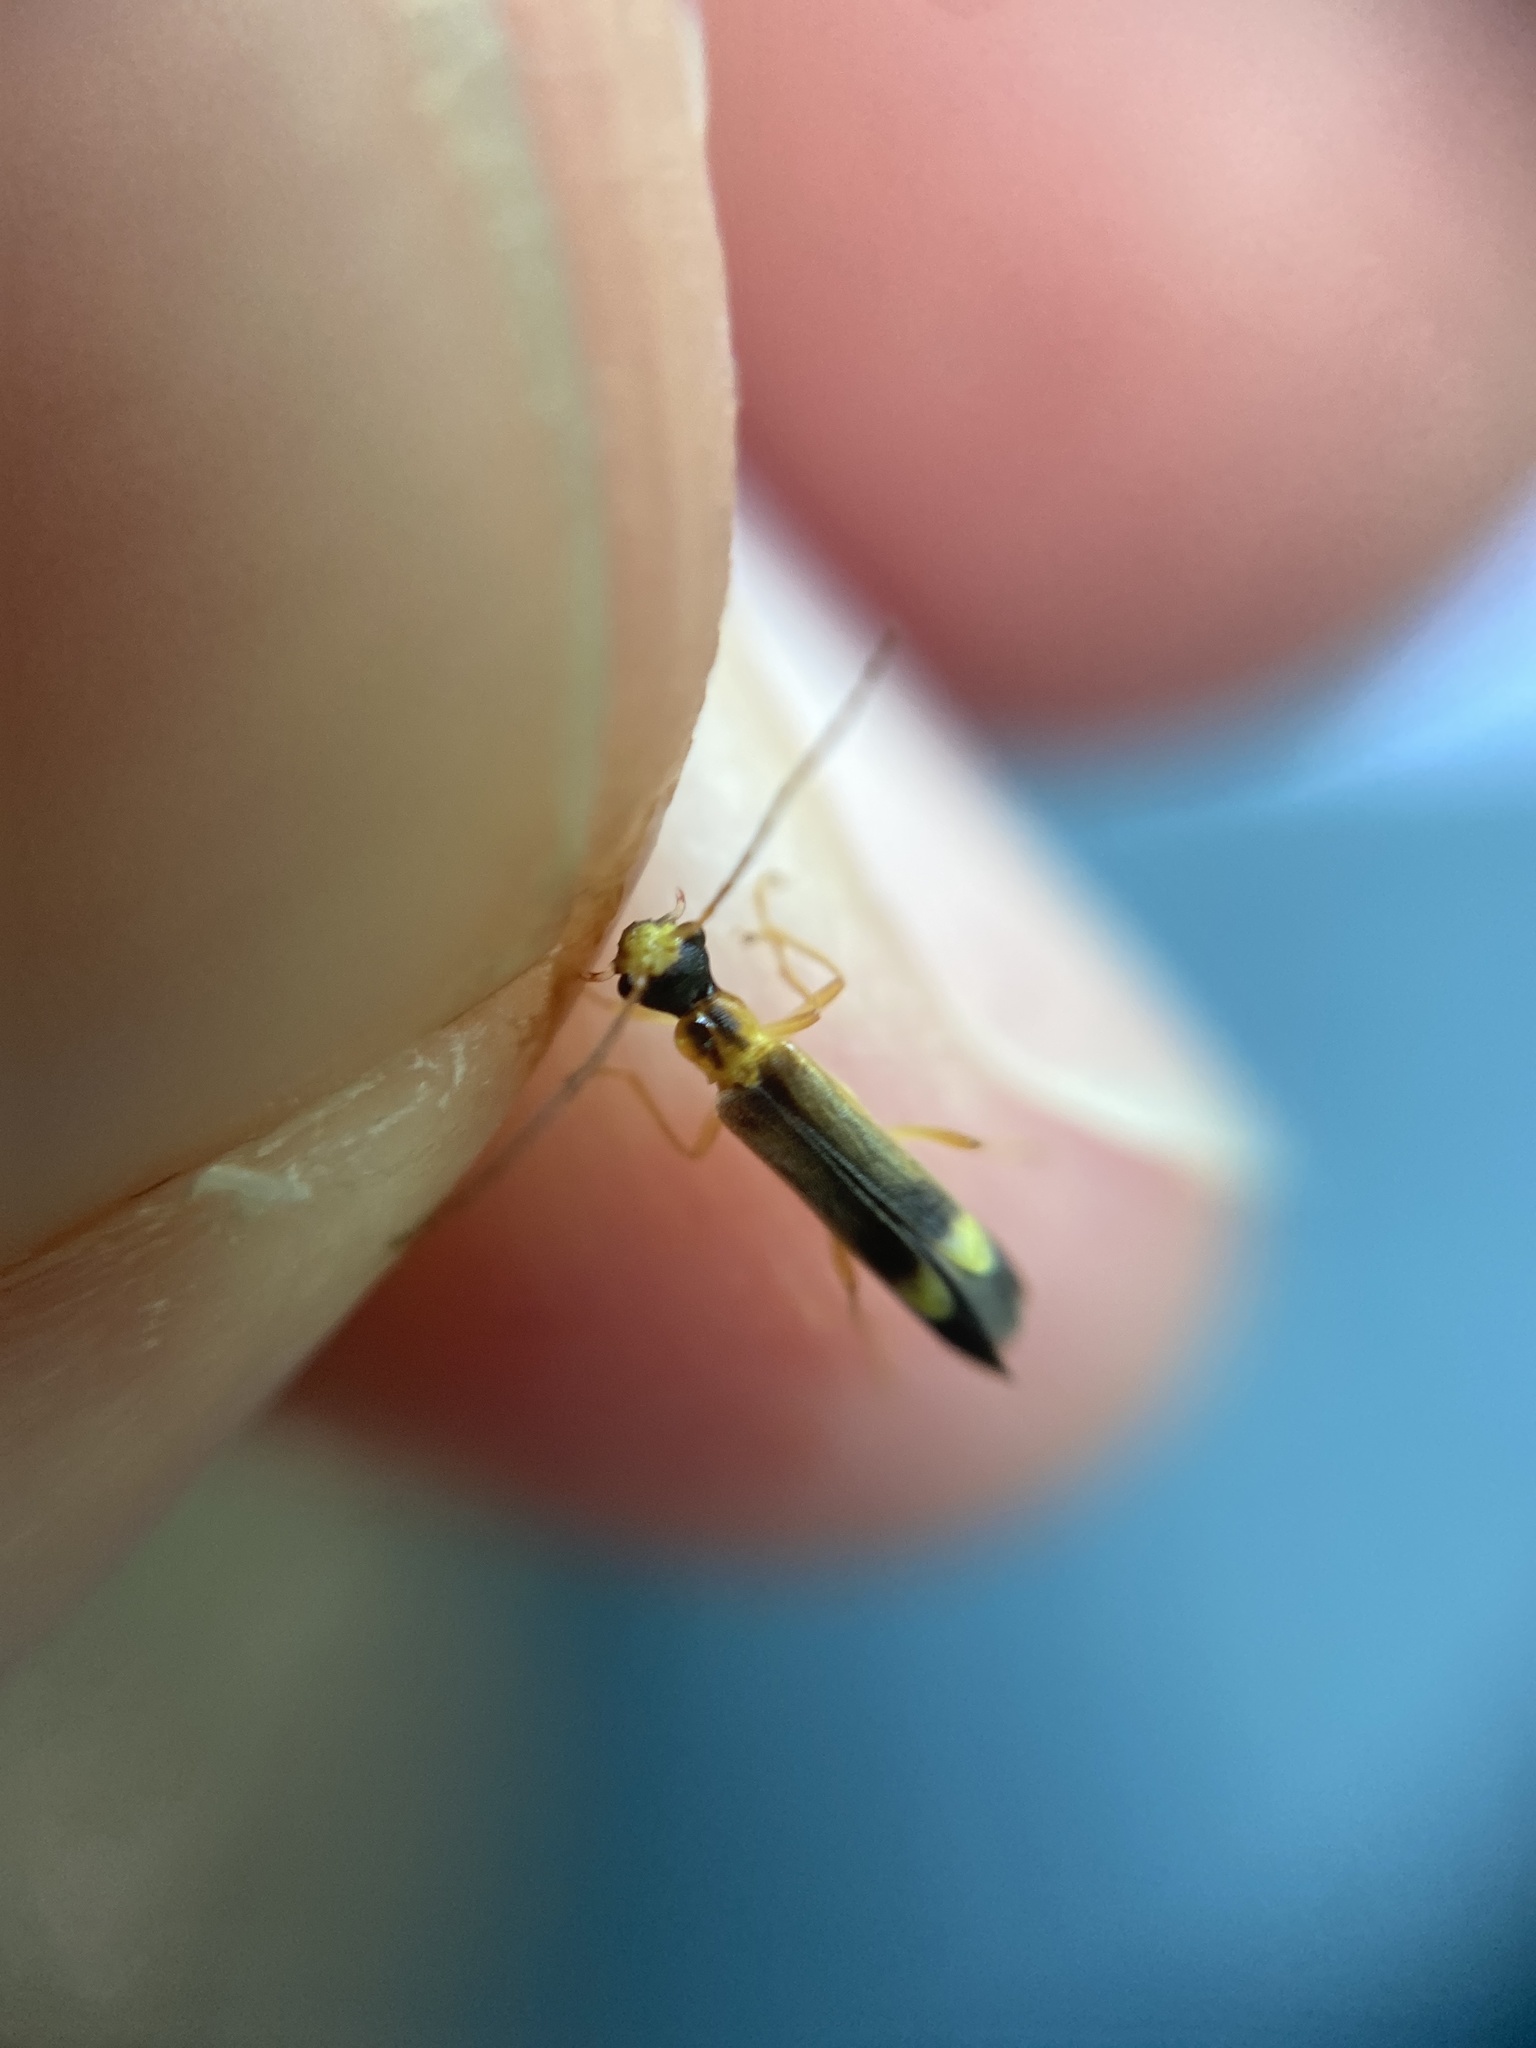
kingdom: Animalia
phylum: Arthropoda
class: Insecta
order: Coleoptera
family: Cantharidae
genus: Malthinus
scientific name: Malthinus flaveolus
